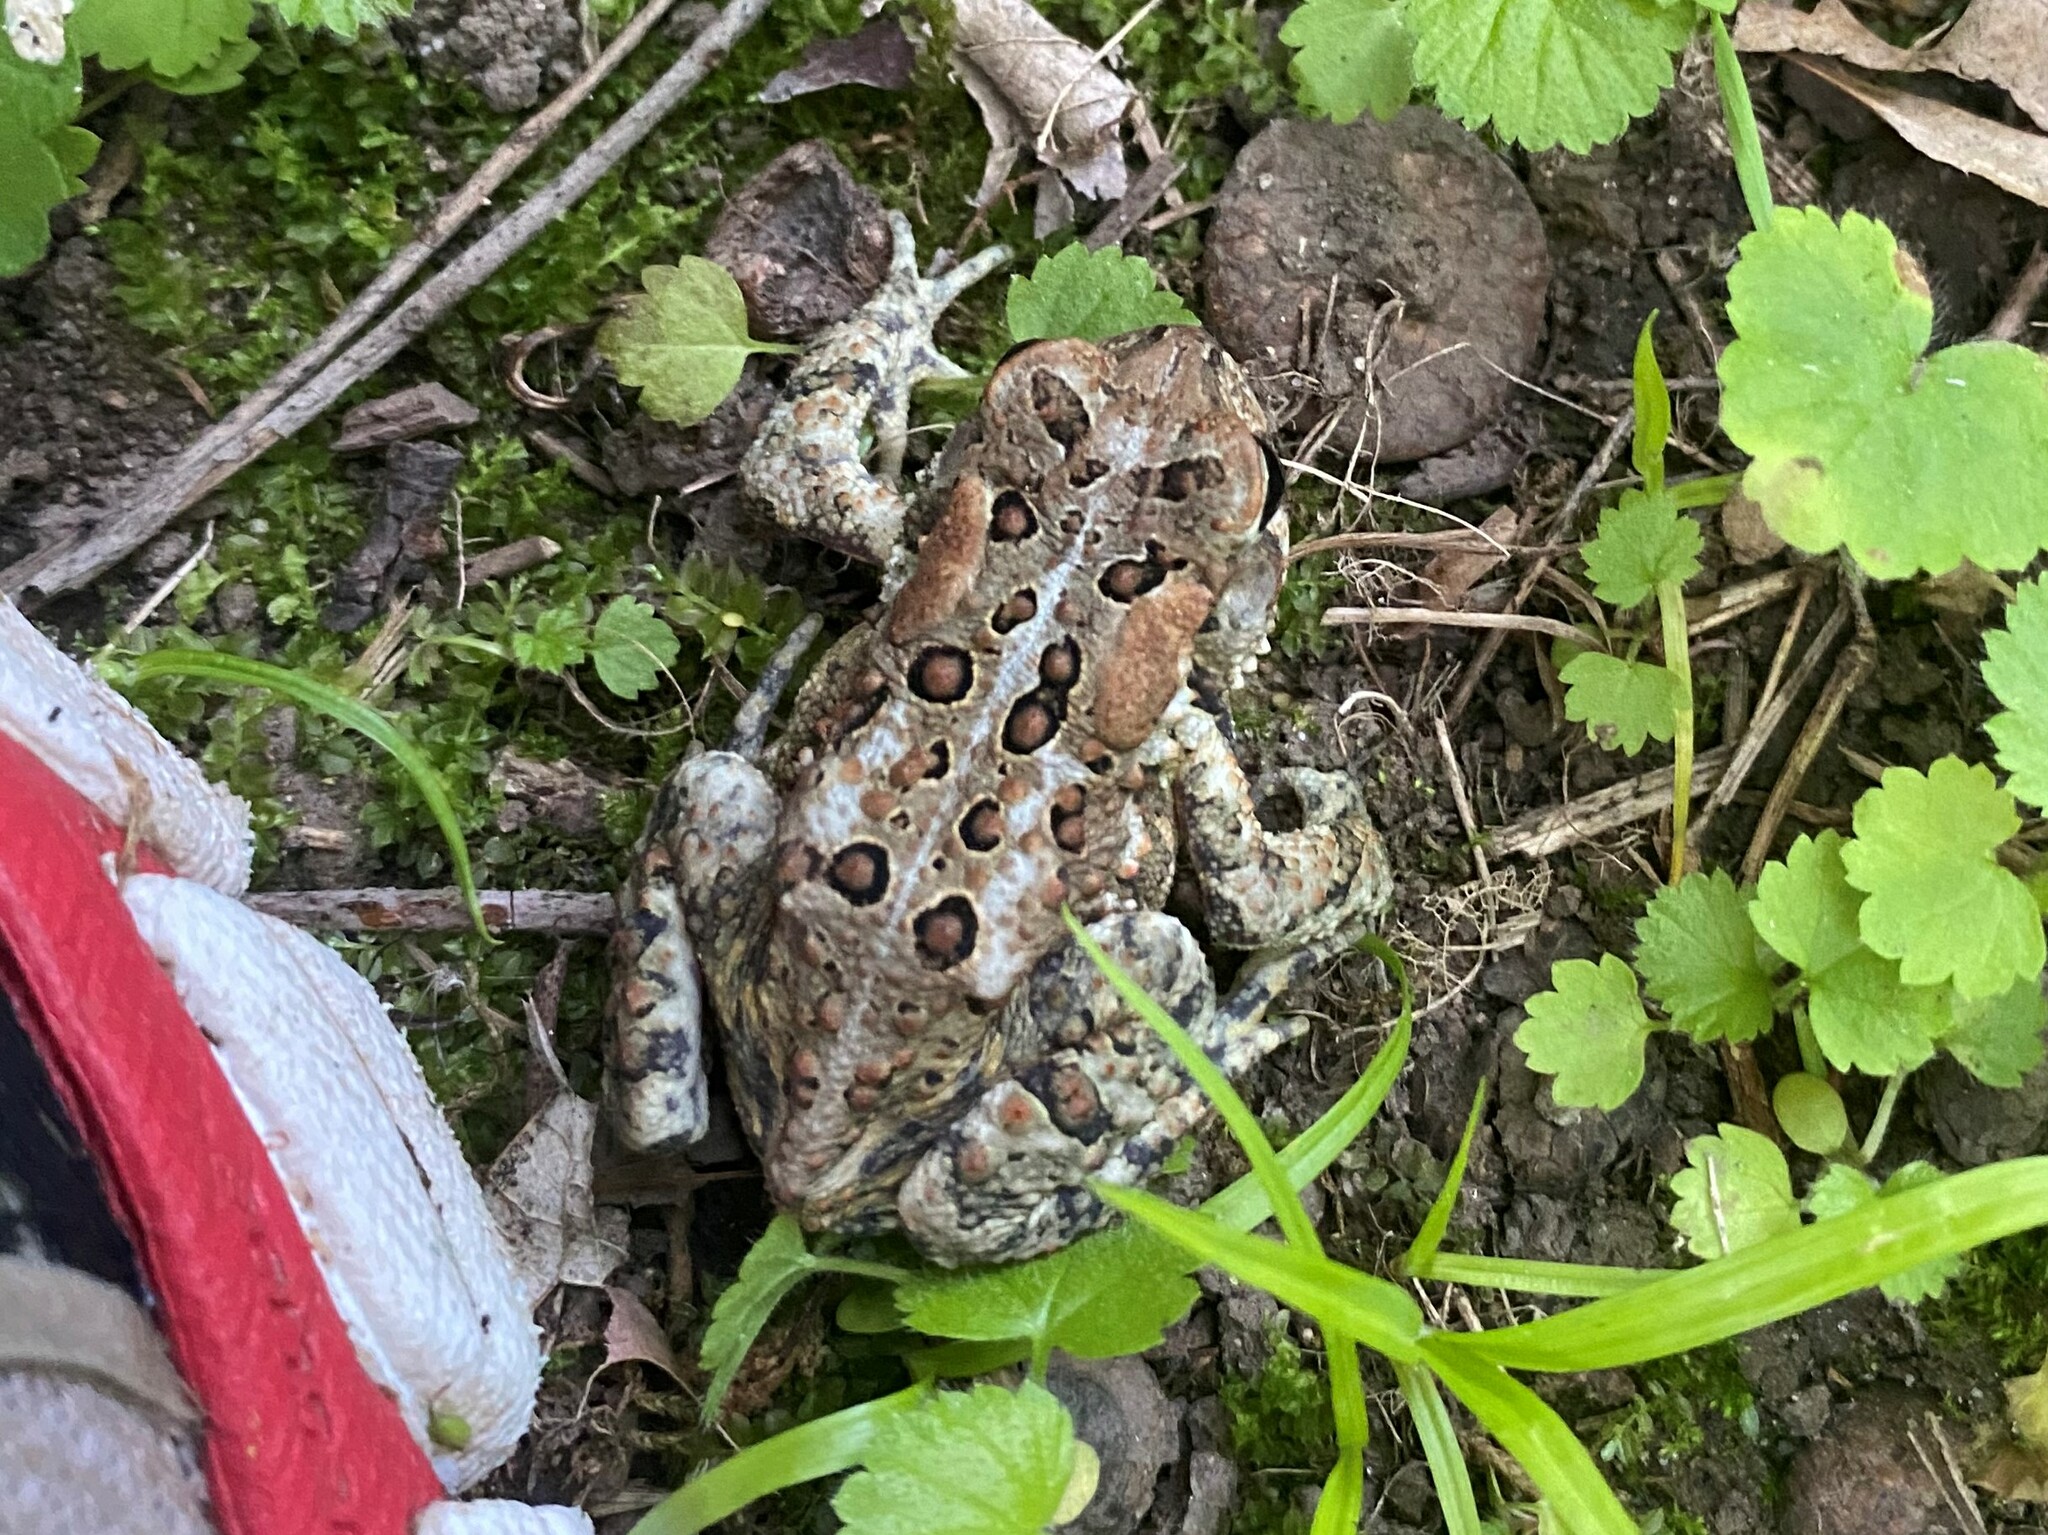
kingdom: Animalia
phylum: Chordata
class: Amphibia
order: Anura
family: Bufonidae
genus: Anaxyrus
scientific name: Anaxyrus americanus
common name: American toad
